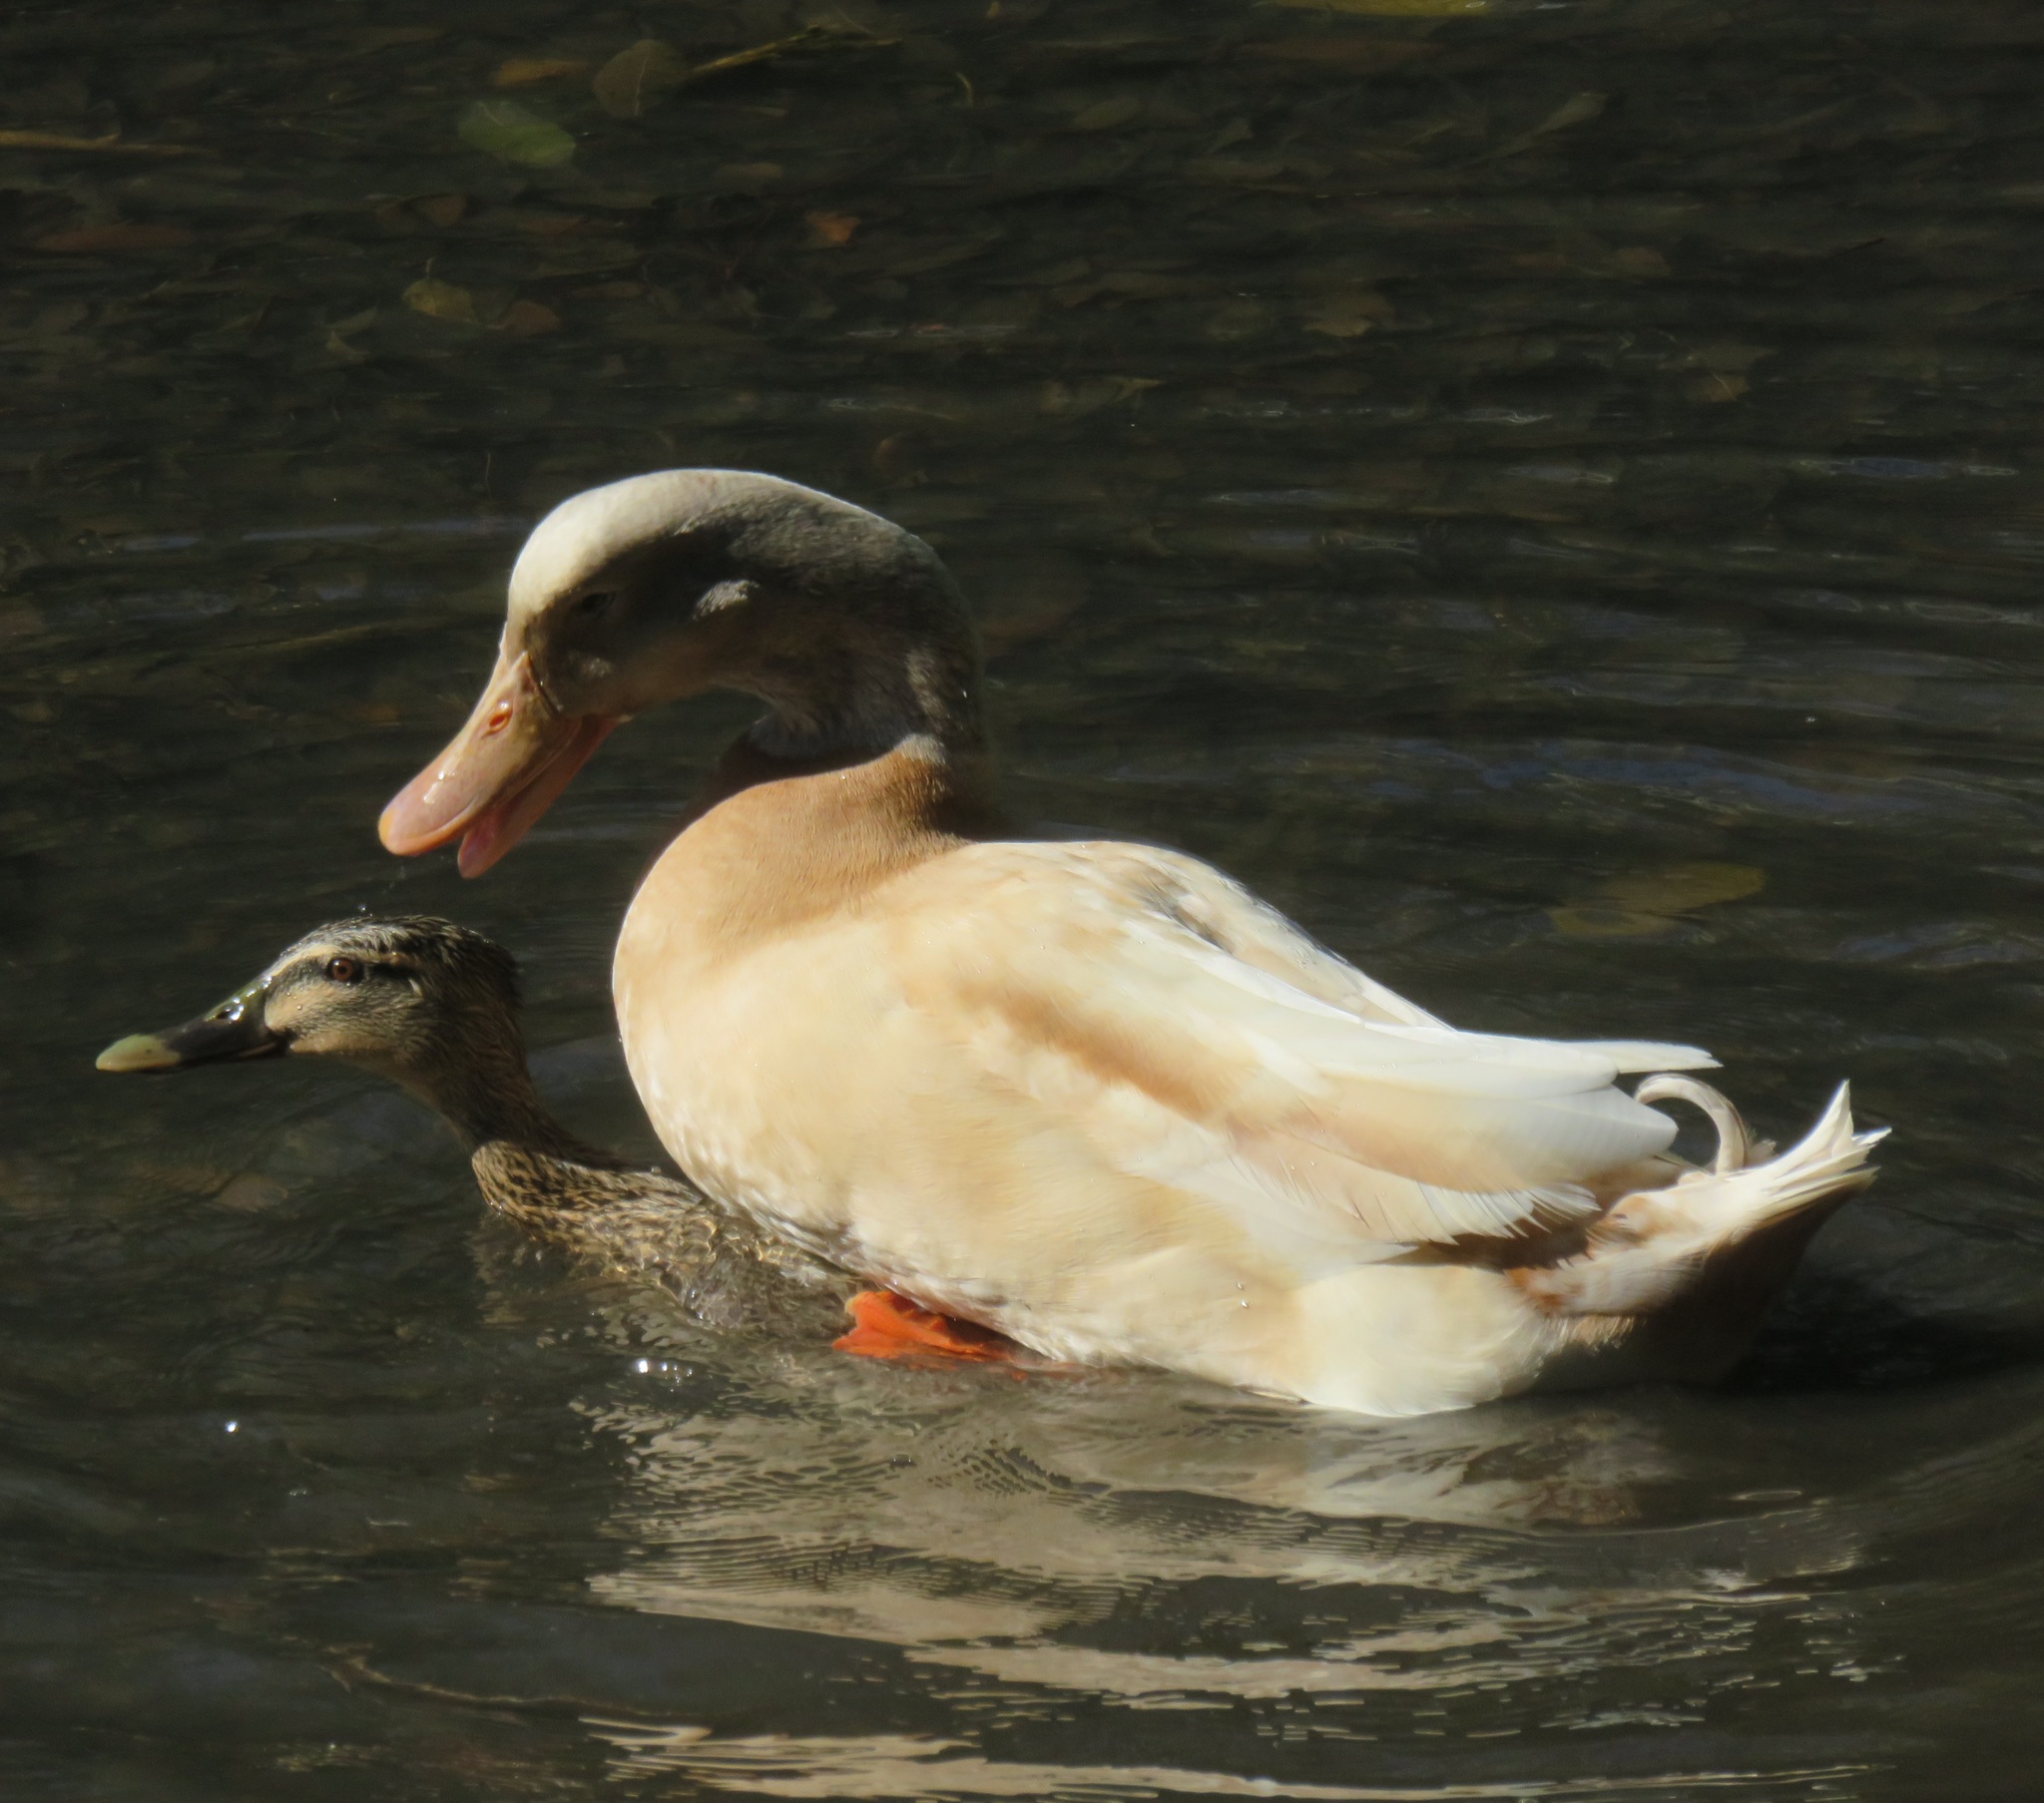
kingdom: Animalia
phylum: Chordata
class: Aves
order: Anseriformes
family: Anatidae
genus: Anas
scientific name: Anas
